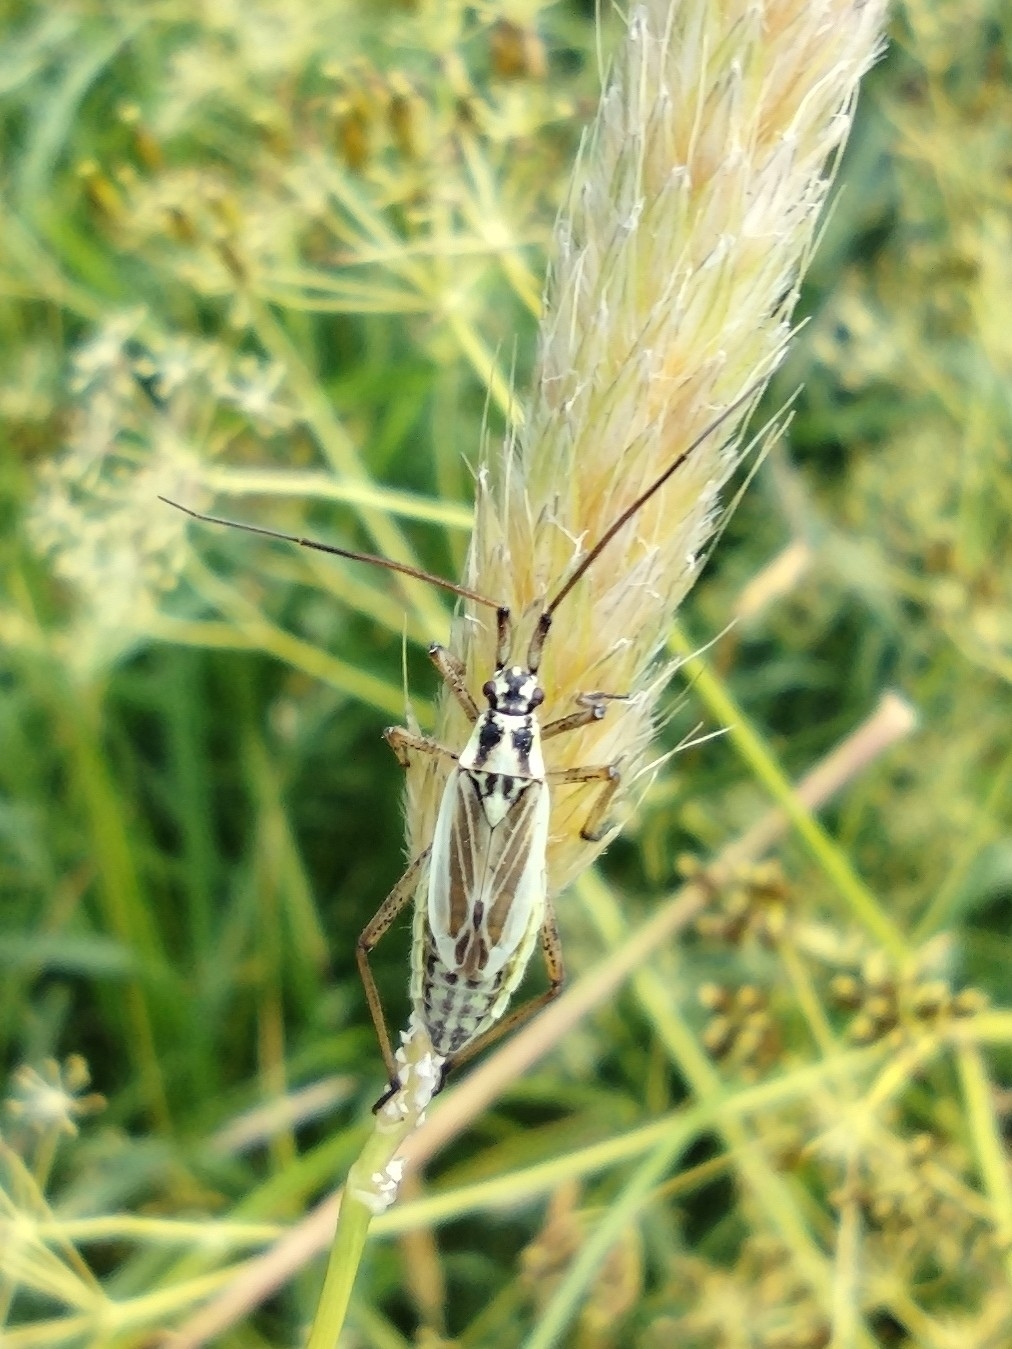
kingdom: Animalia
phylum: Arthropoda
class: Insecta
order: Hemiptera
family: Miridae
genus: Leptopterna
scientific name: Leptopterna dolabrata
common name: Meadow plant bug
